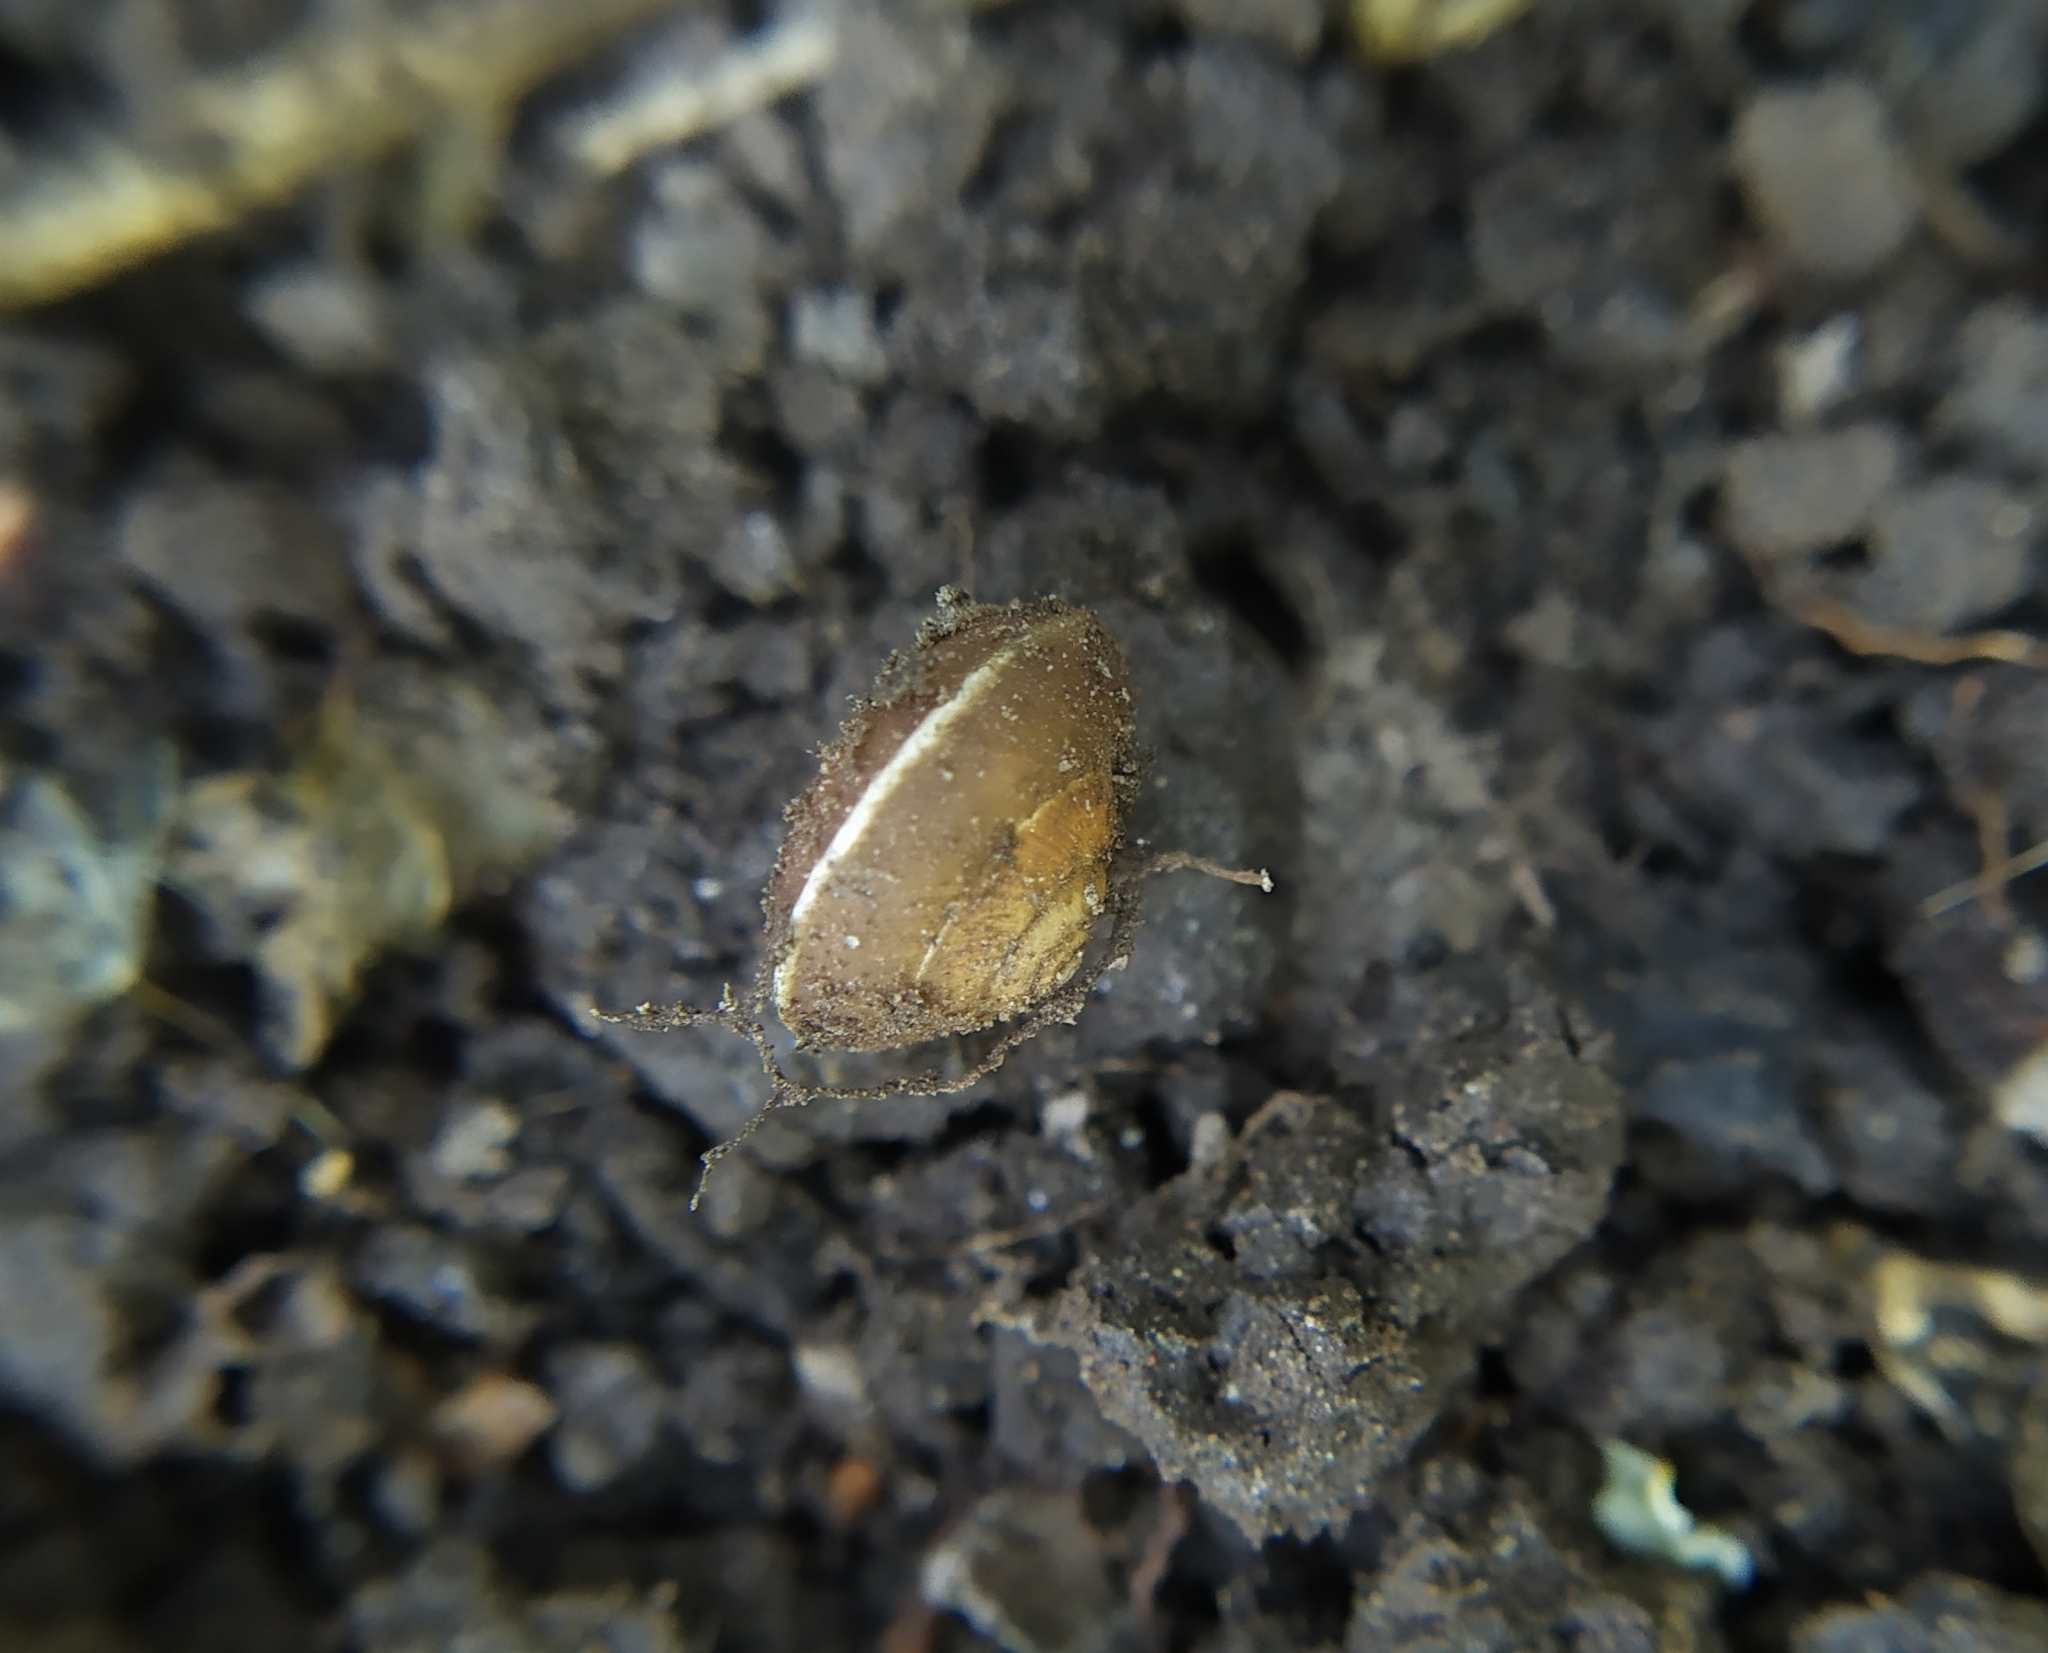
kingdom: Animalia
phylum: Mollusca
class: Gastropoda
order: Stylommatophora
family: Hygromiidae
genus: Hygromia
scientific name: Hygromia cinctella
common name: Girdled snail
